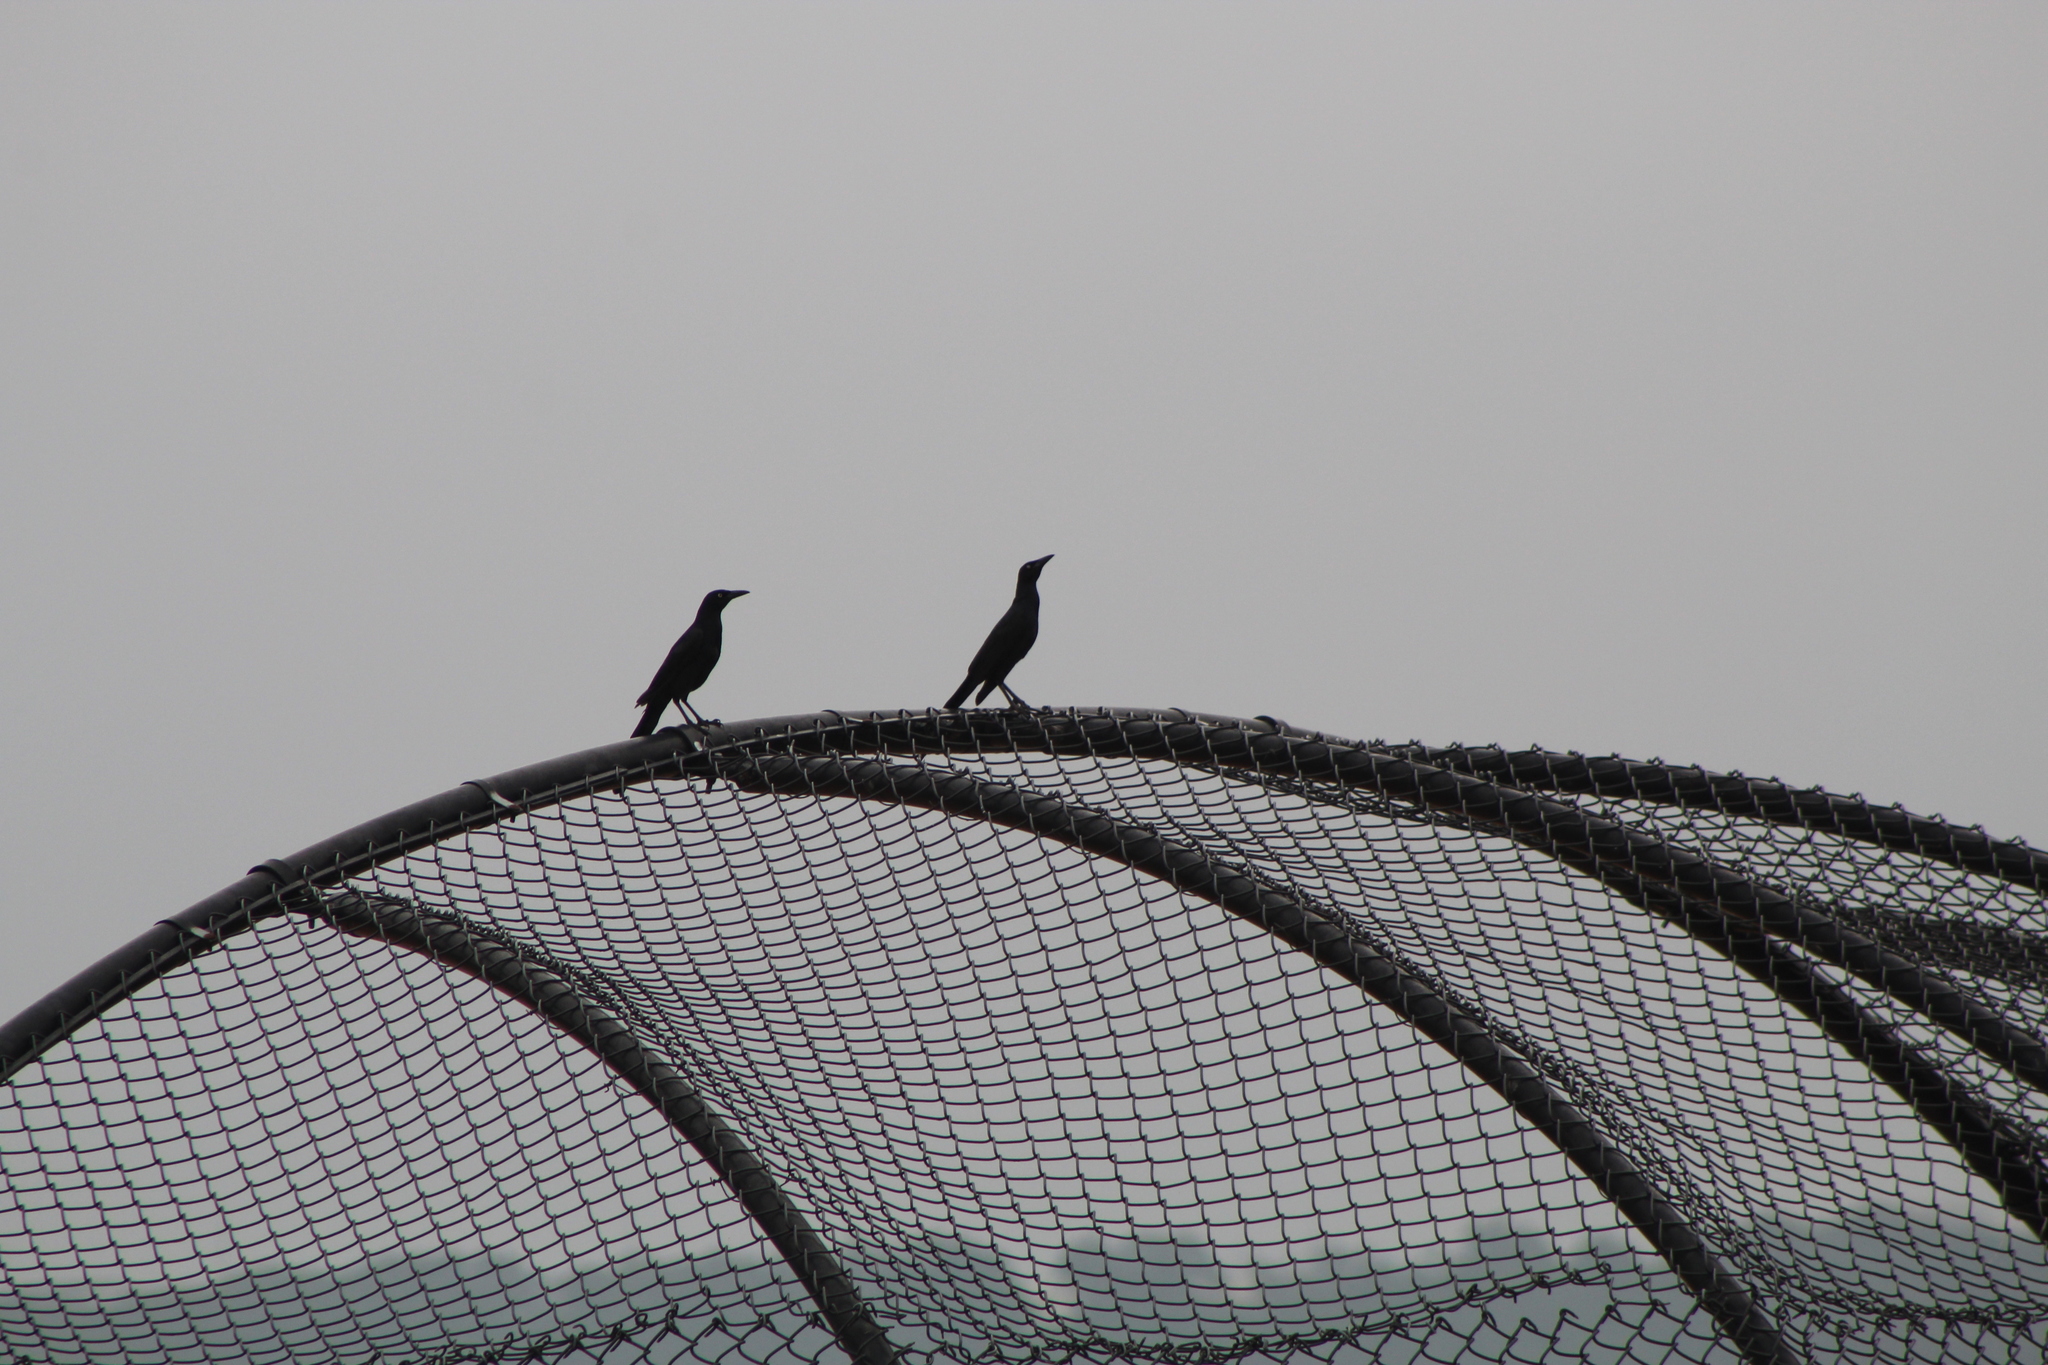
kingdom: Animalia
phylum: Chordata
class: Aves
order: Passeriformes
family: Icteridae
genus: Quiscalus
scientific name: Quiscalus mexicanus
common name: Great-tailed grackle
